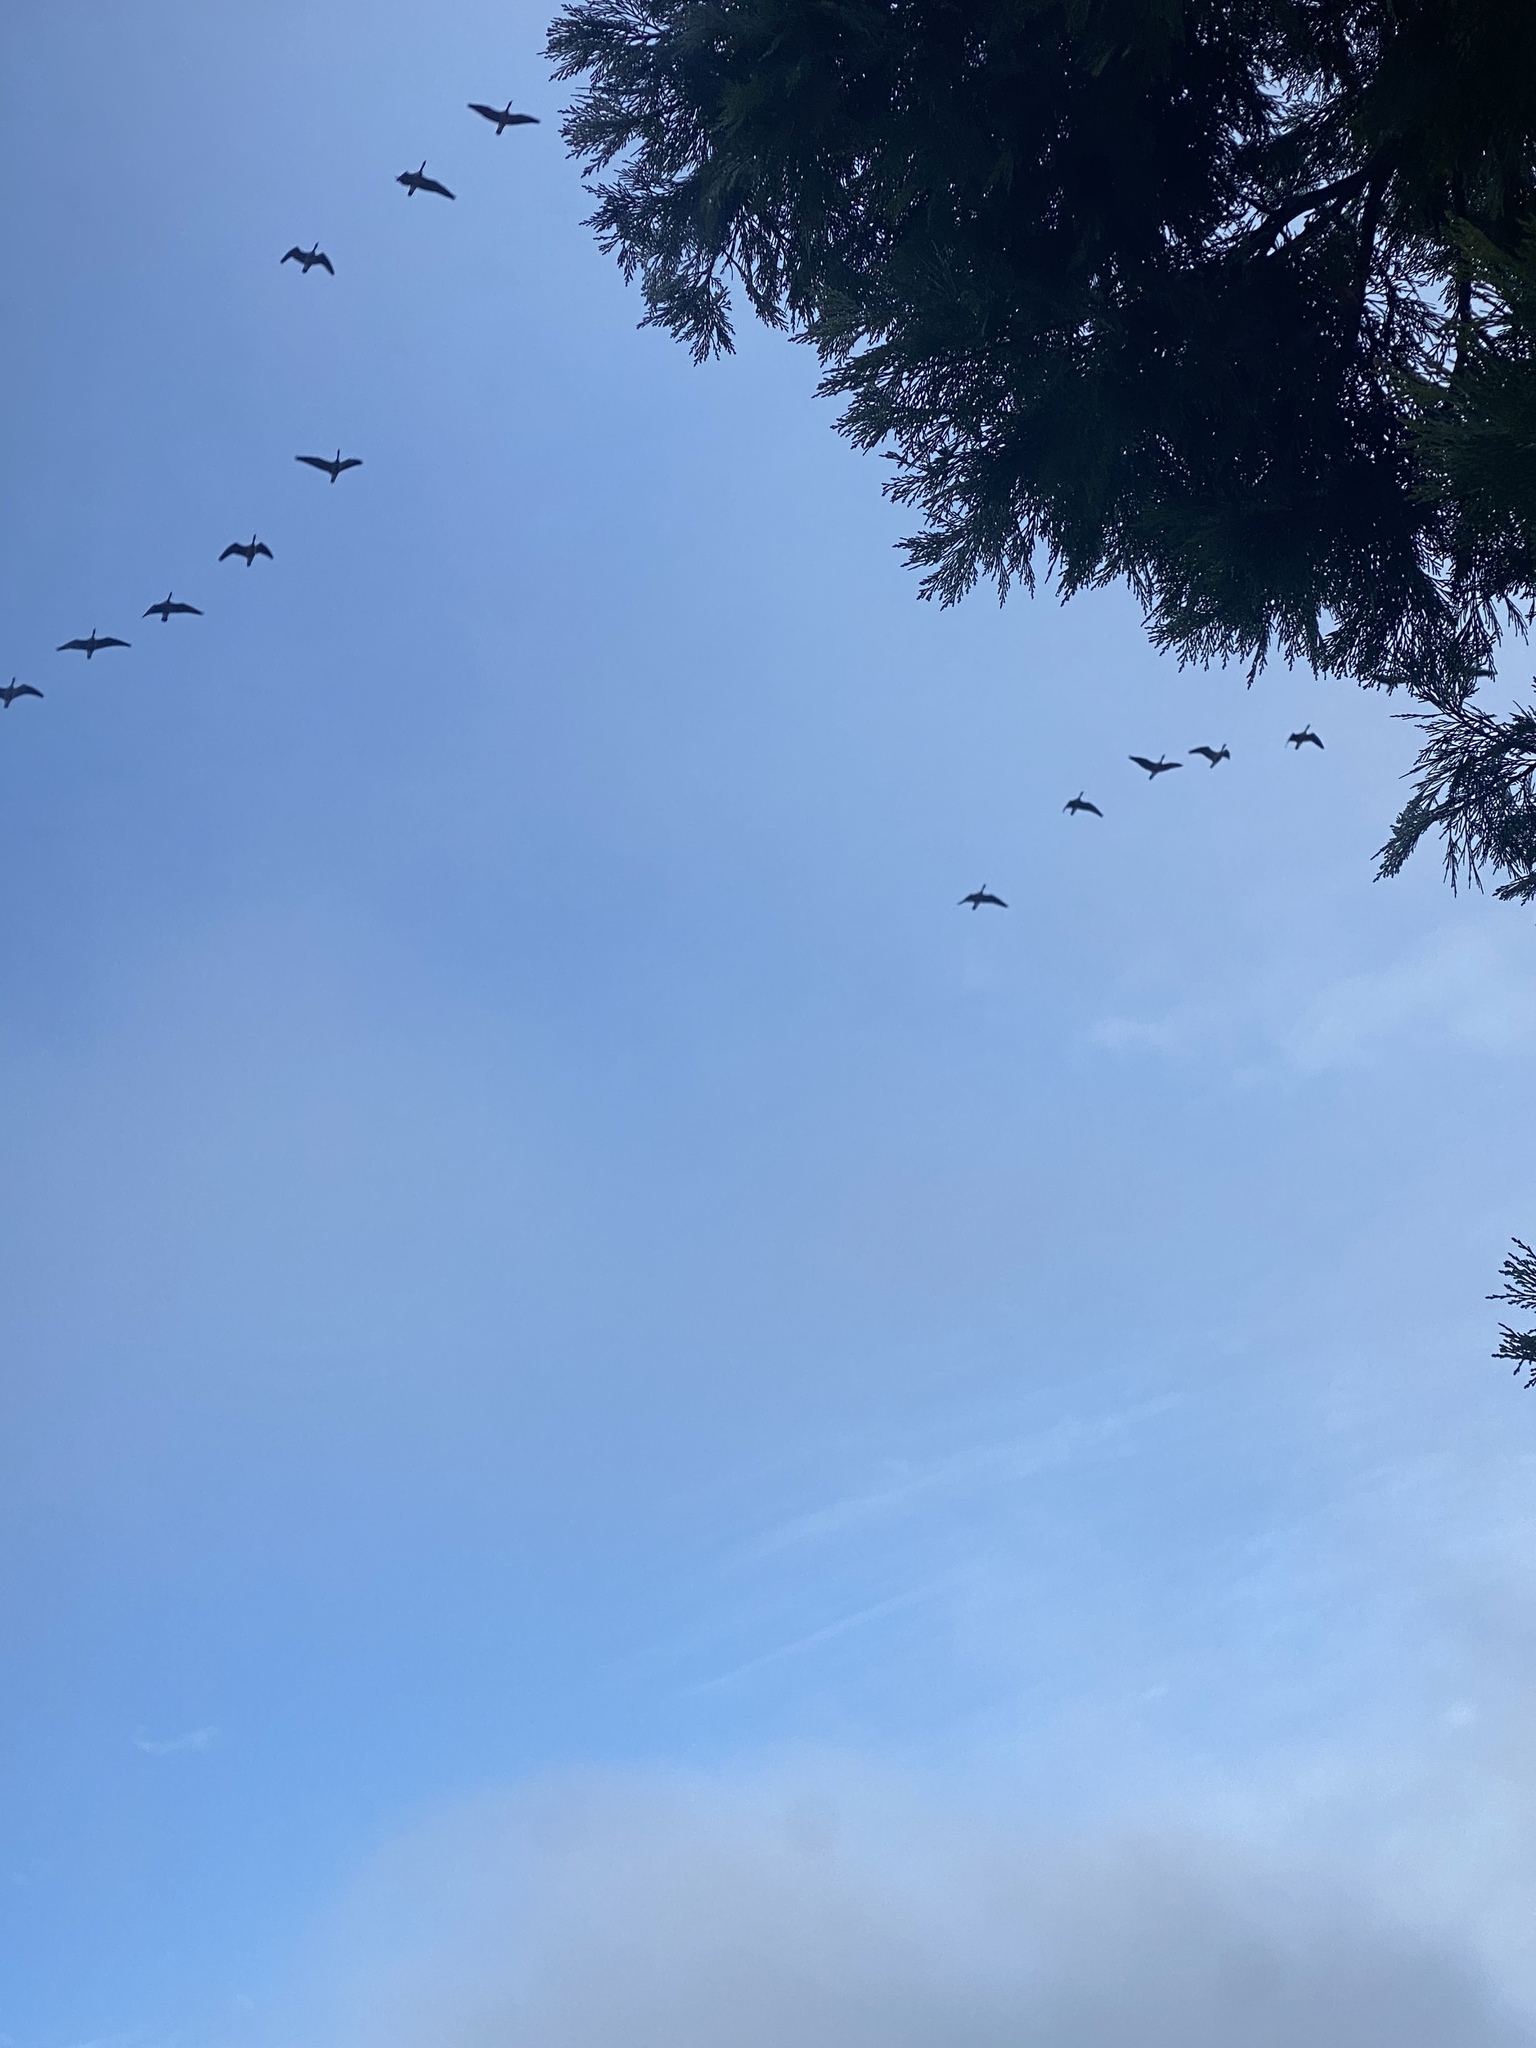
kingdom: Animalia
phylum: Chordata
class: Aves
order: Anseriformes
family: Anatidae
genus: Branta
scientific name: Branta canadensis
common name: Canada goose
